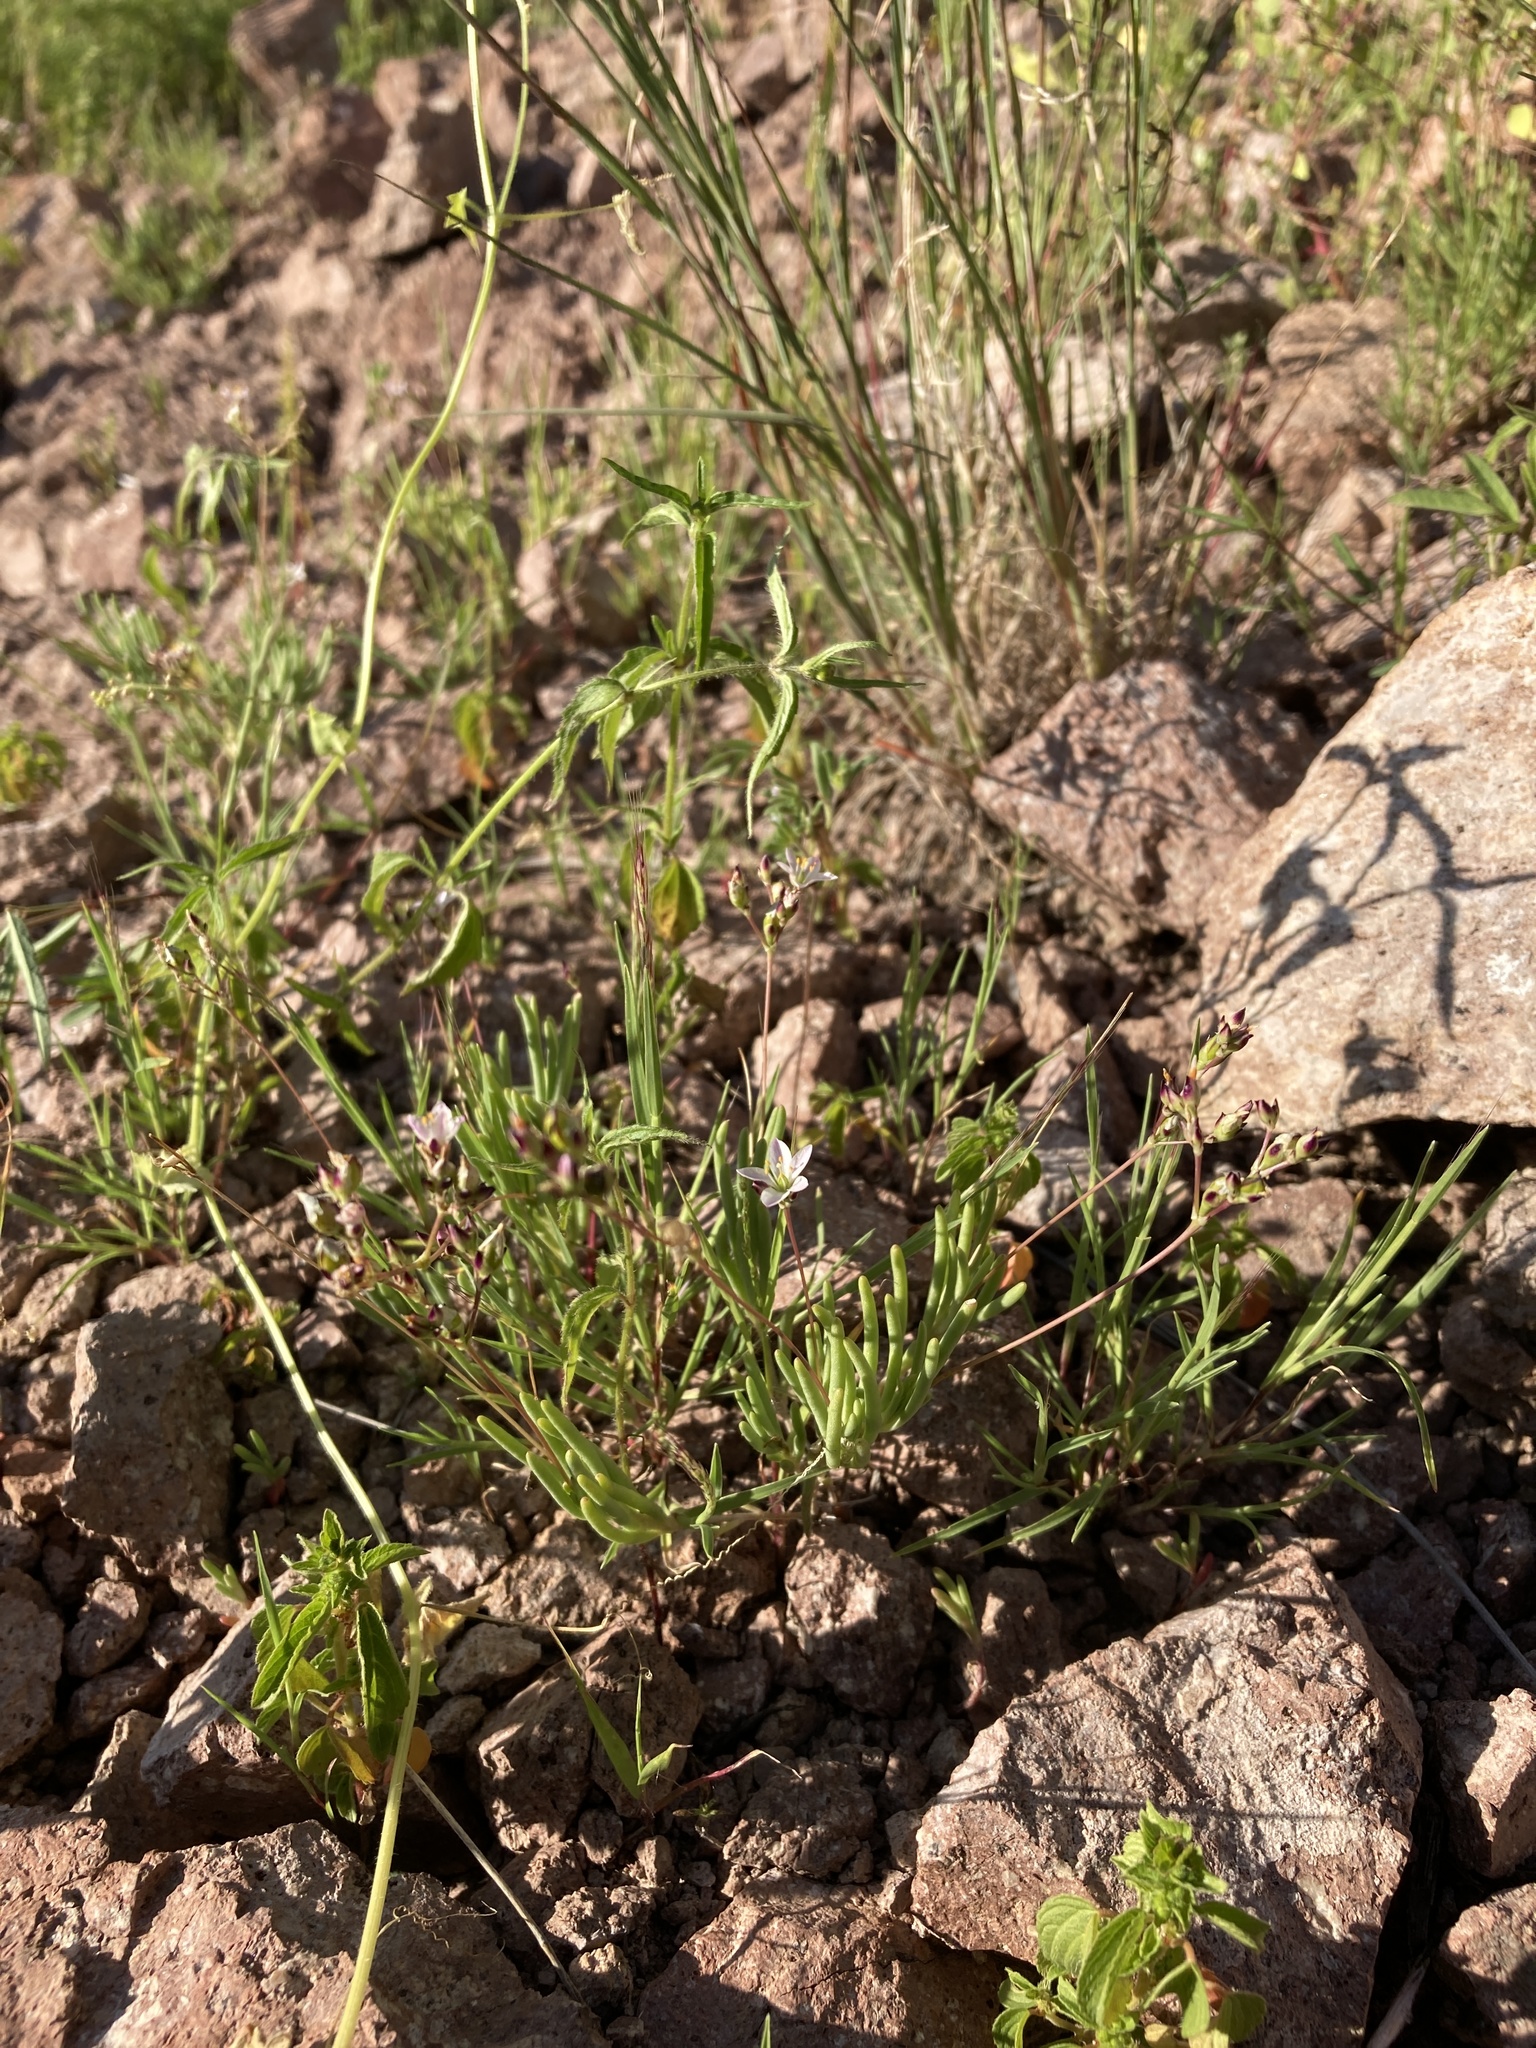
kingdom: Plantae
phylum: Tracheophyta
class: Magnoliopsida
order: Caryophyllales
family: Montiaceae
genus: Phemeranthus
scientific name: Phemeranthus confertiflorus
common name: New mexico fameflower
